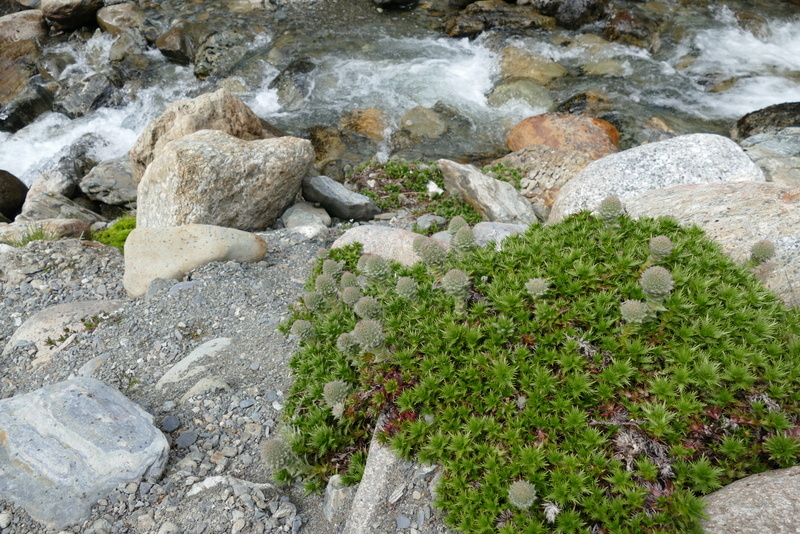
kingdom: Plantae
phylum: Tracheophyta
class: Magnoliopsida
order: Asterales
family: Asteraceae
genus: Nassauvia
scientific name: Nassauvia magellanica
